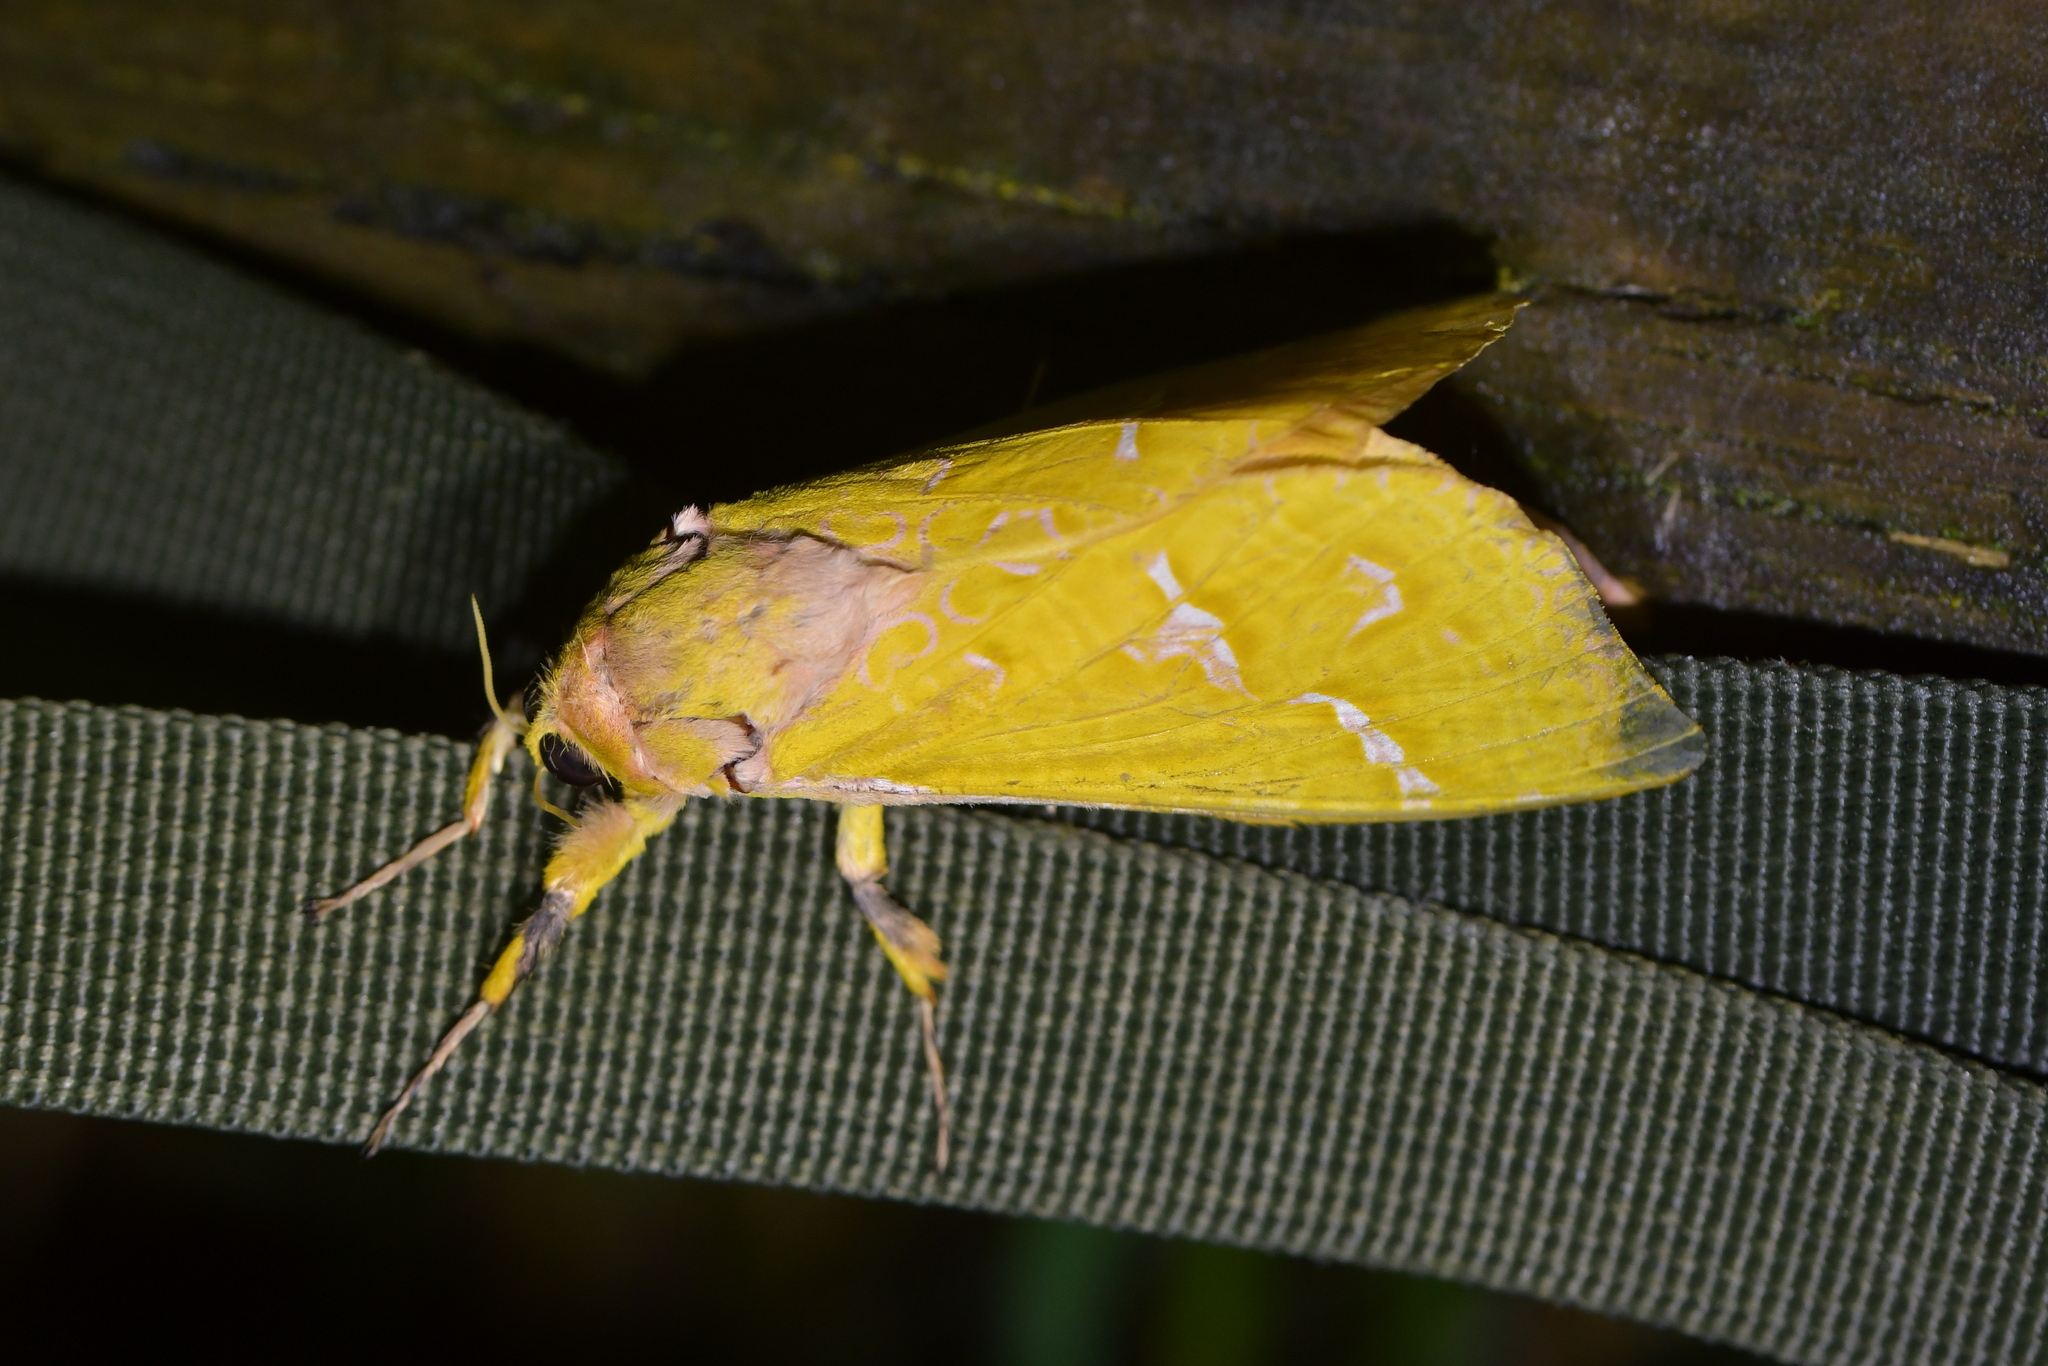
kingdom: Animalia
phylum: Arthropoda
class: Insecta
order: Lepidoptera
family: Hepialidae
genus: Aenetus
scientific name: Aenetus virescens
